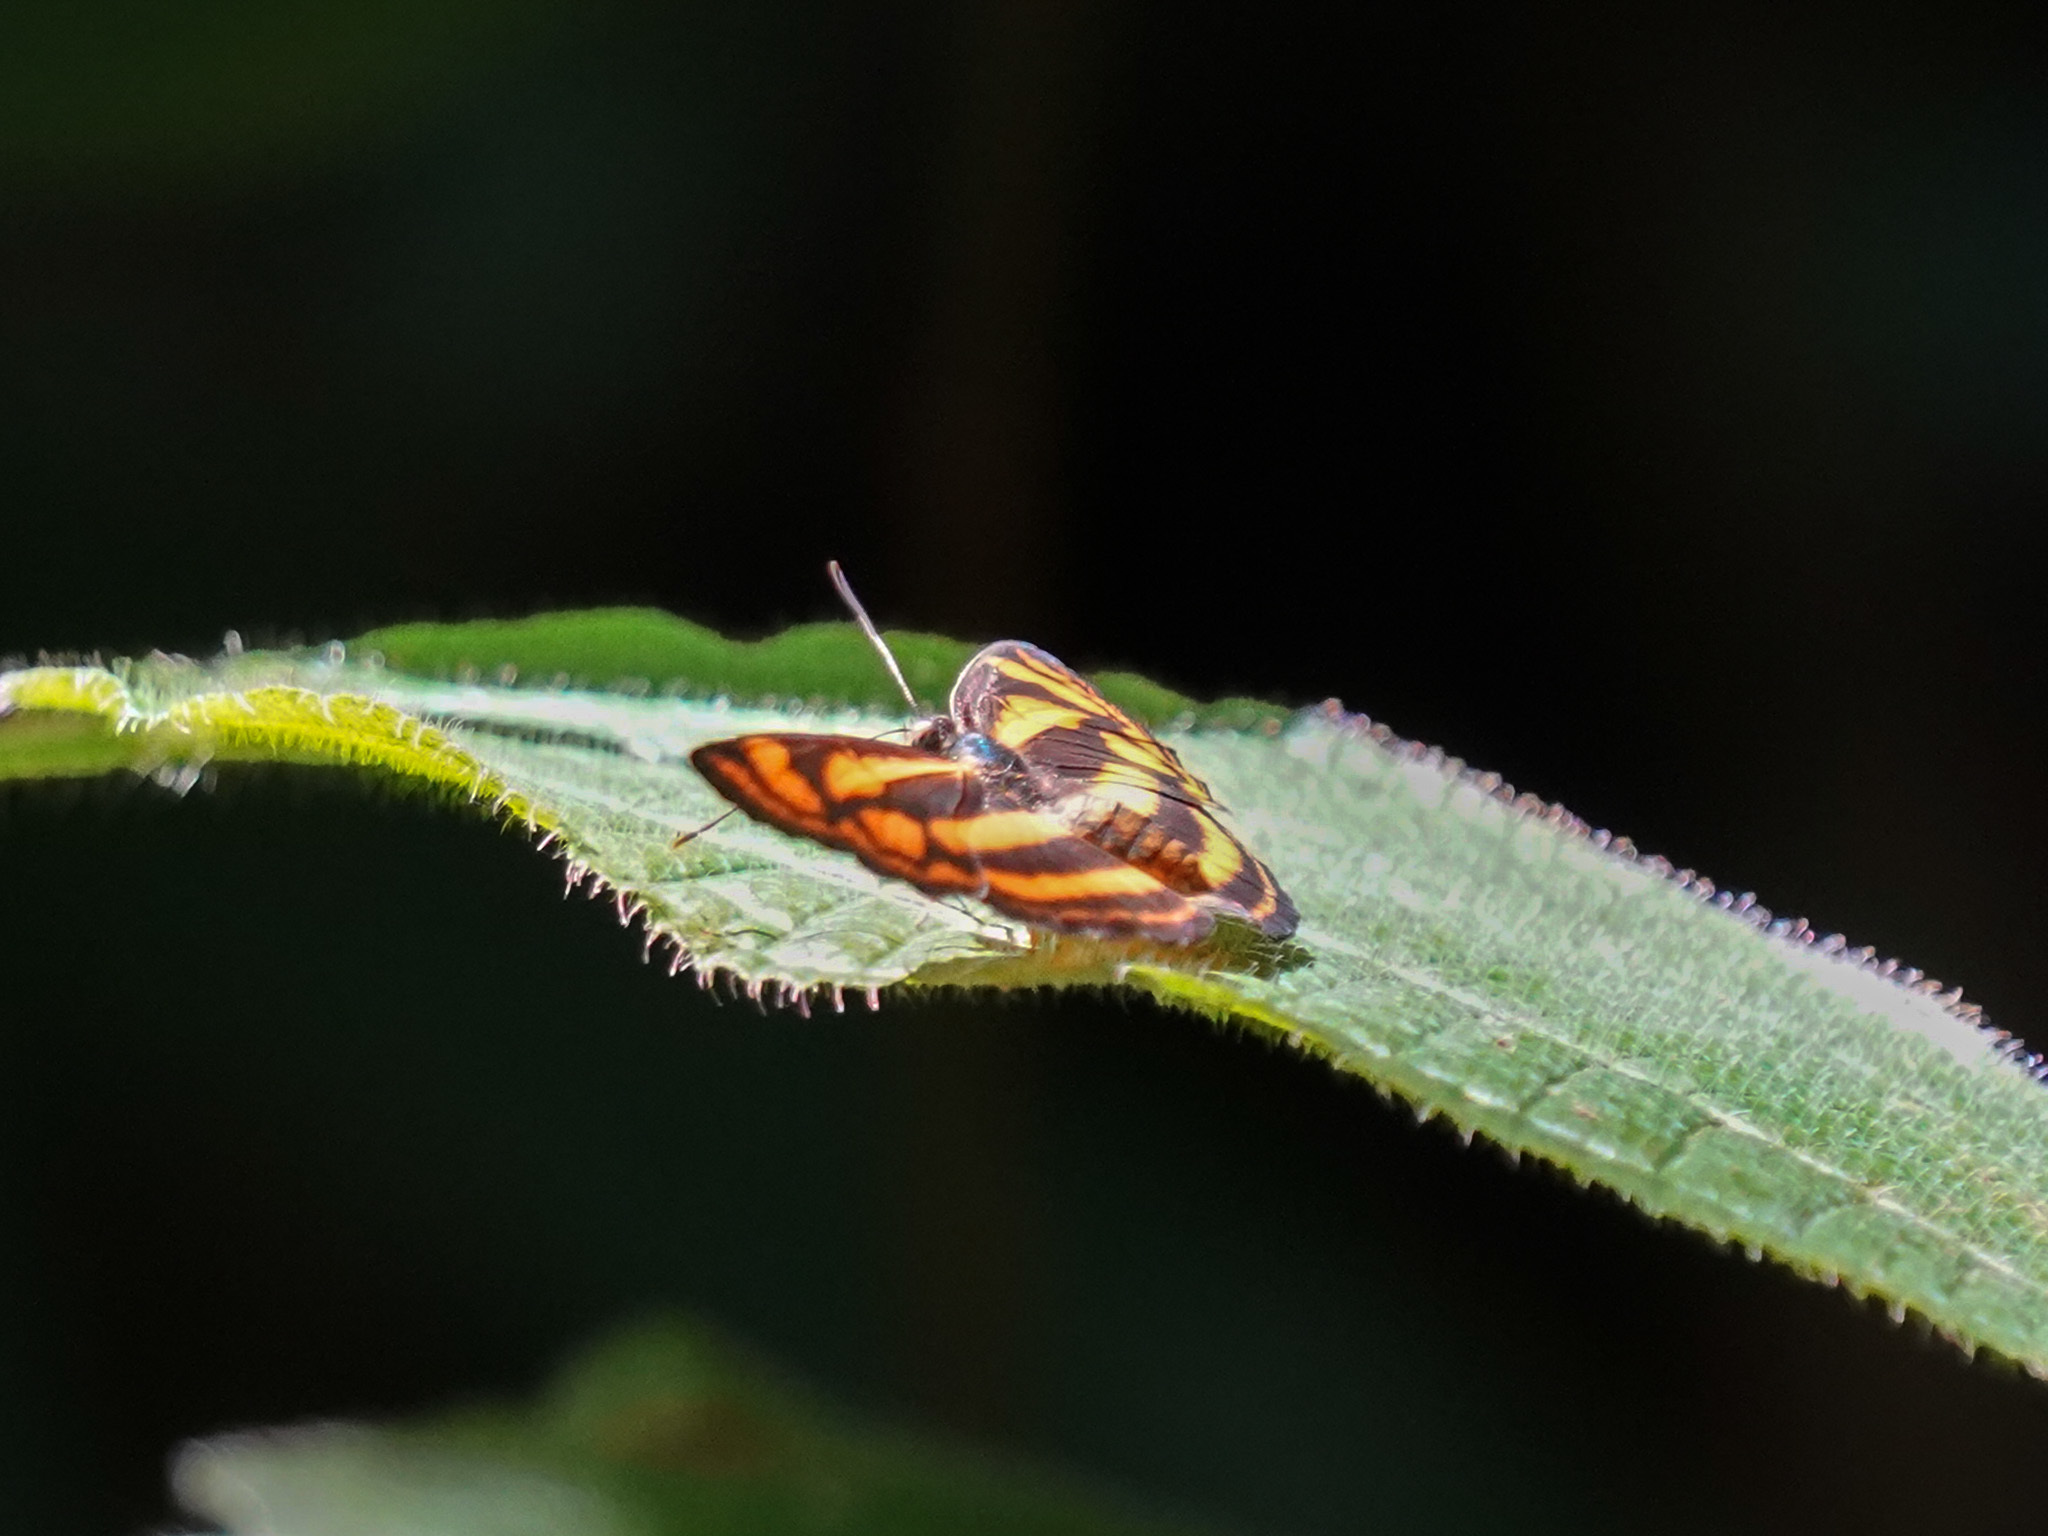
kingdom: Animalia
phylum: Arthropoda
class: Insecta
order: Lepidoptera
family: Nymphalidae
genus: Lasippa
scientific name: Lasippa tiga
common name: Malayan lascar
